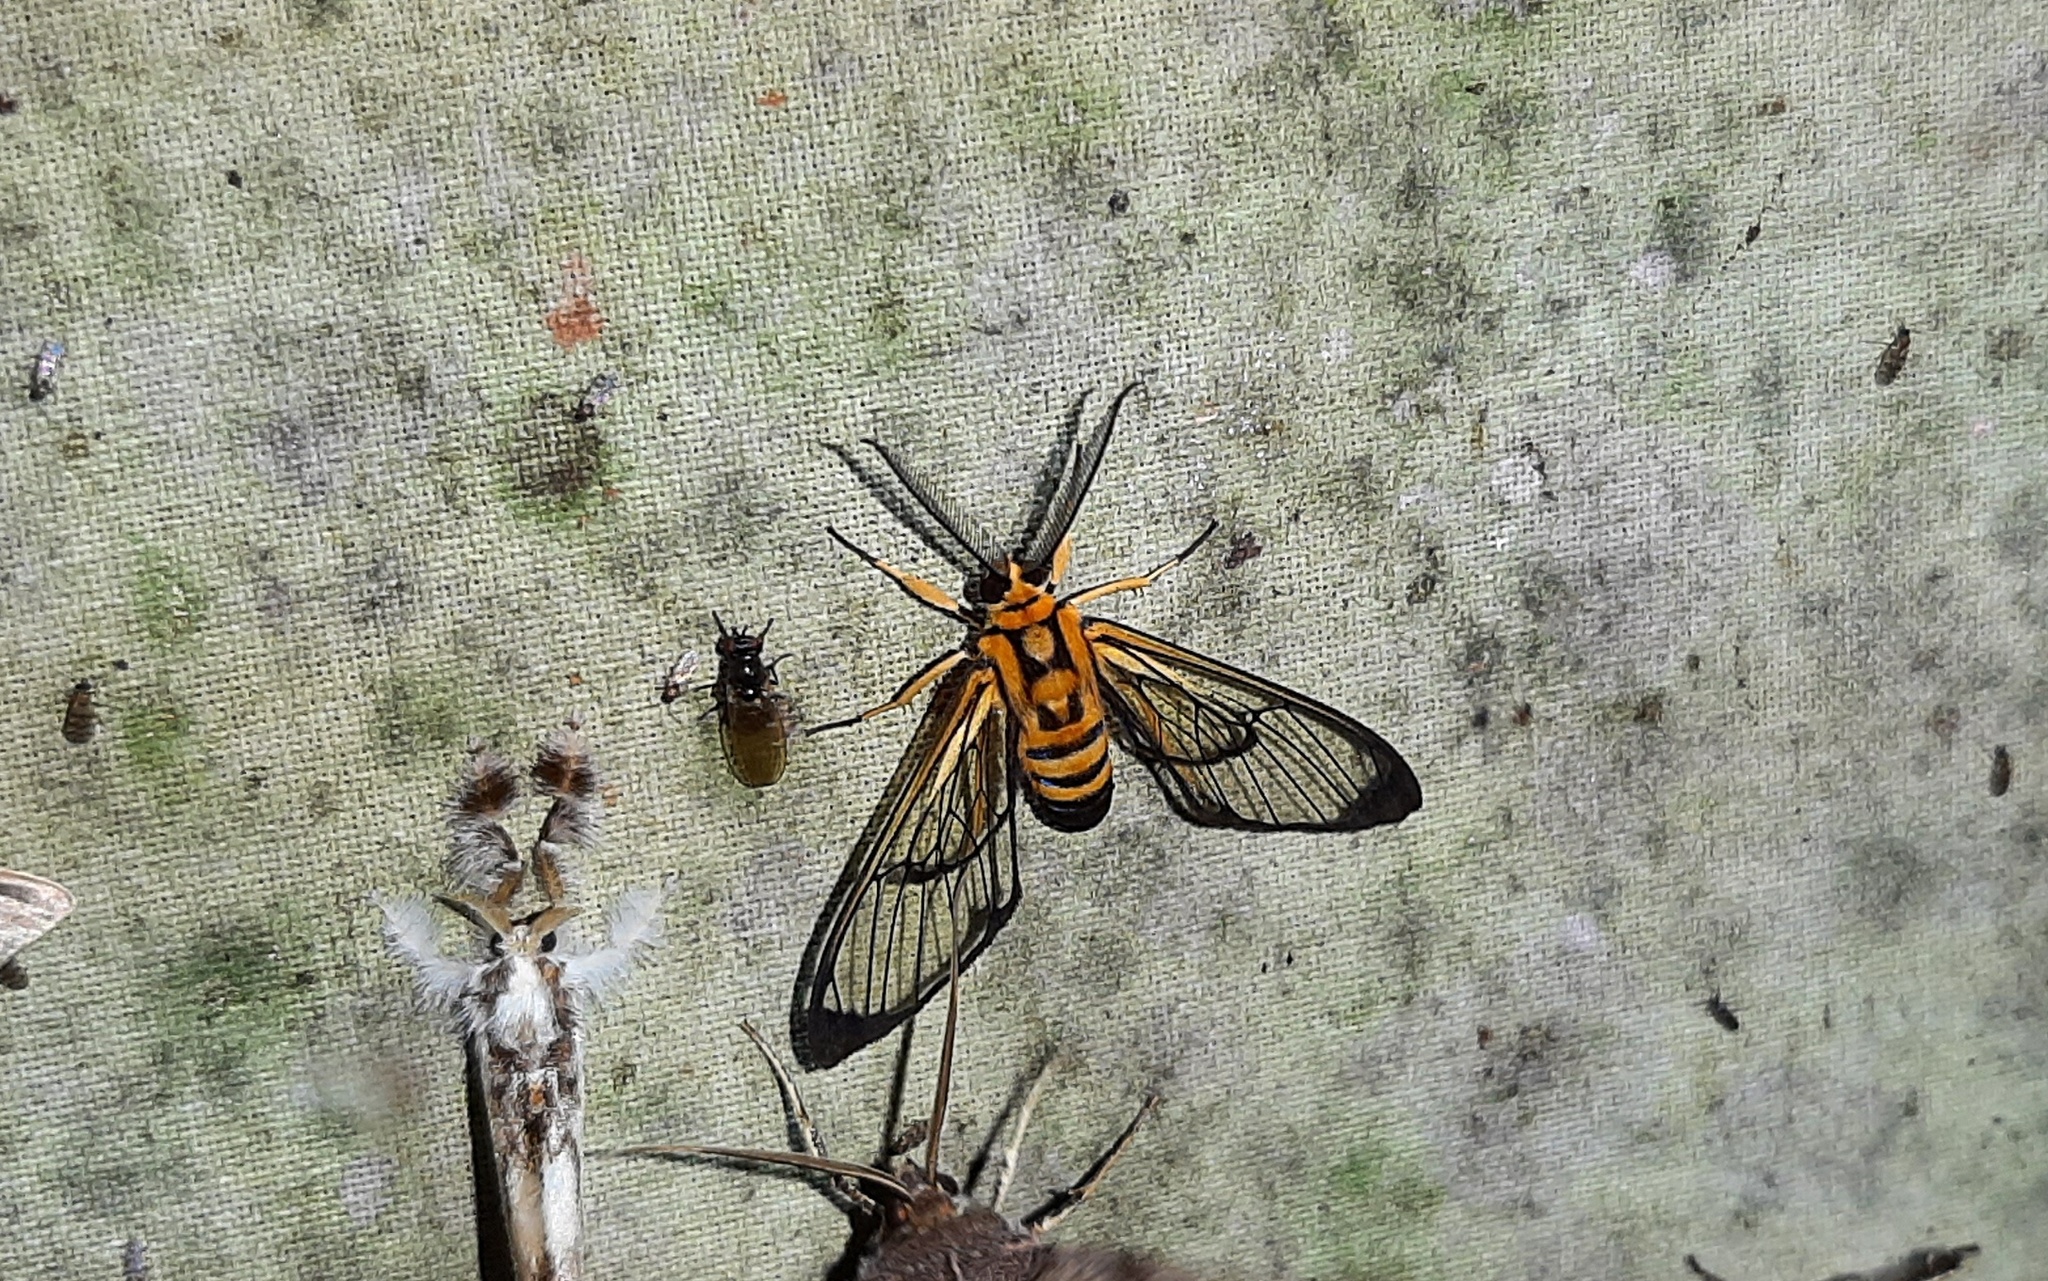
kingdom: Animalia
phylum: Arthropoda
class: Insecta
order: Lepidoptera
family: Erebidae
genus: Mesothen
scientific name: Mesothen nomia
